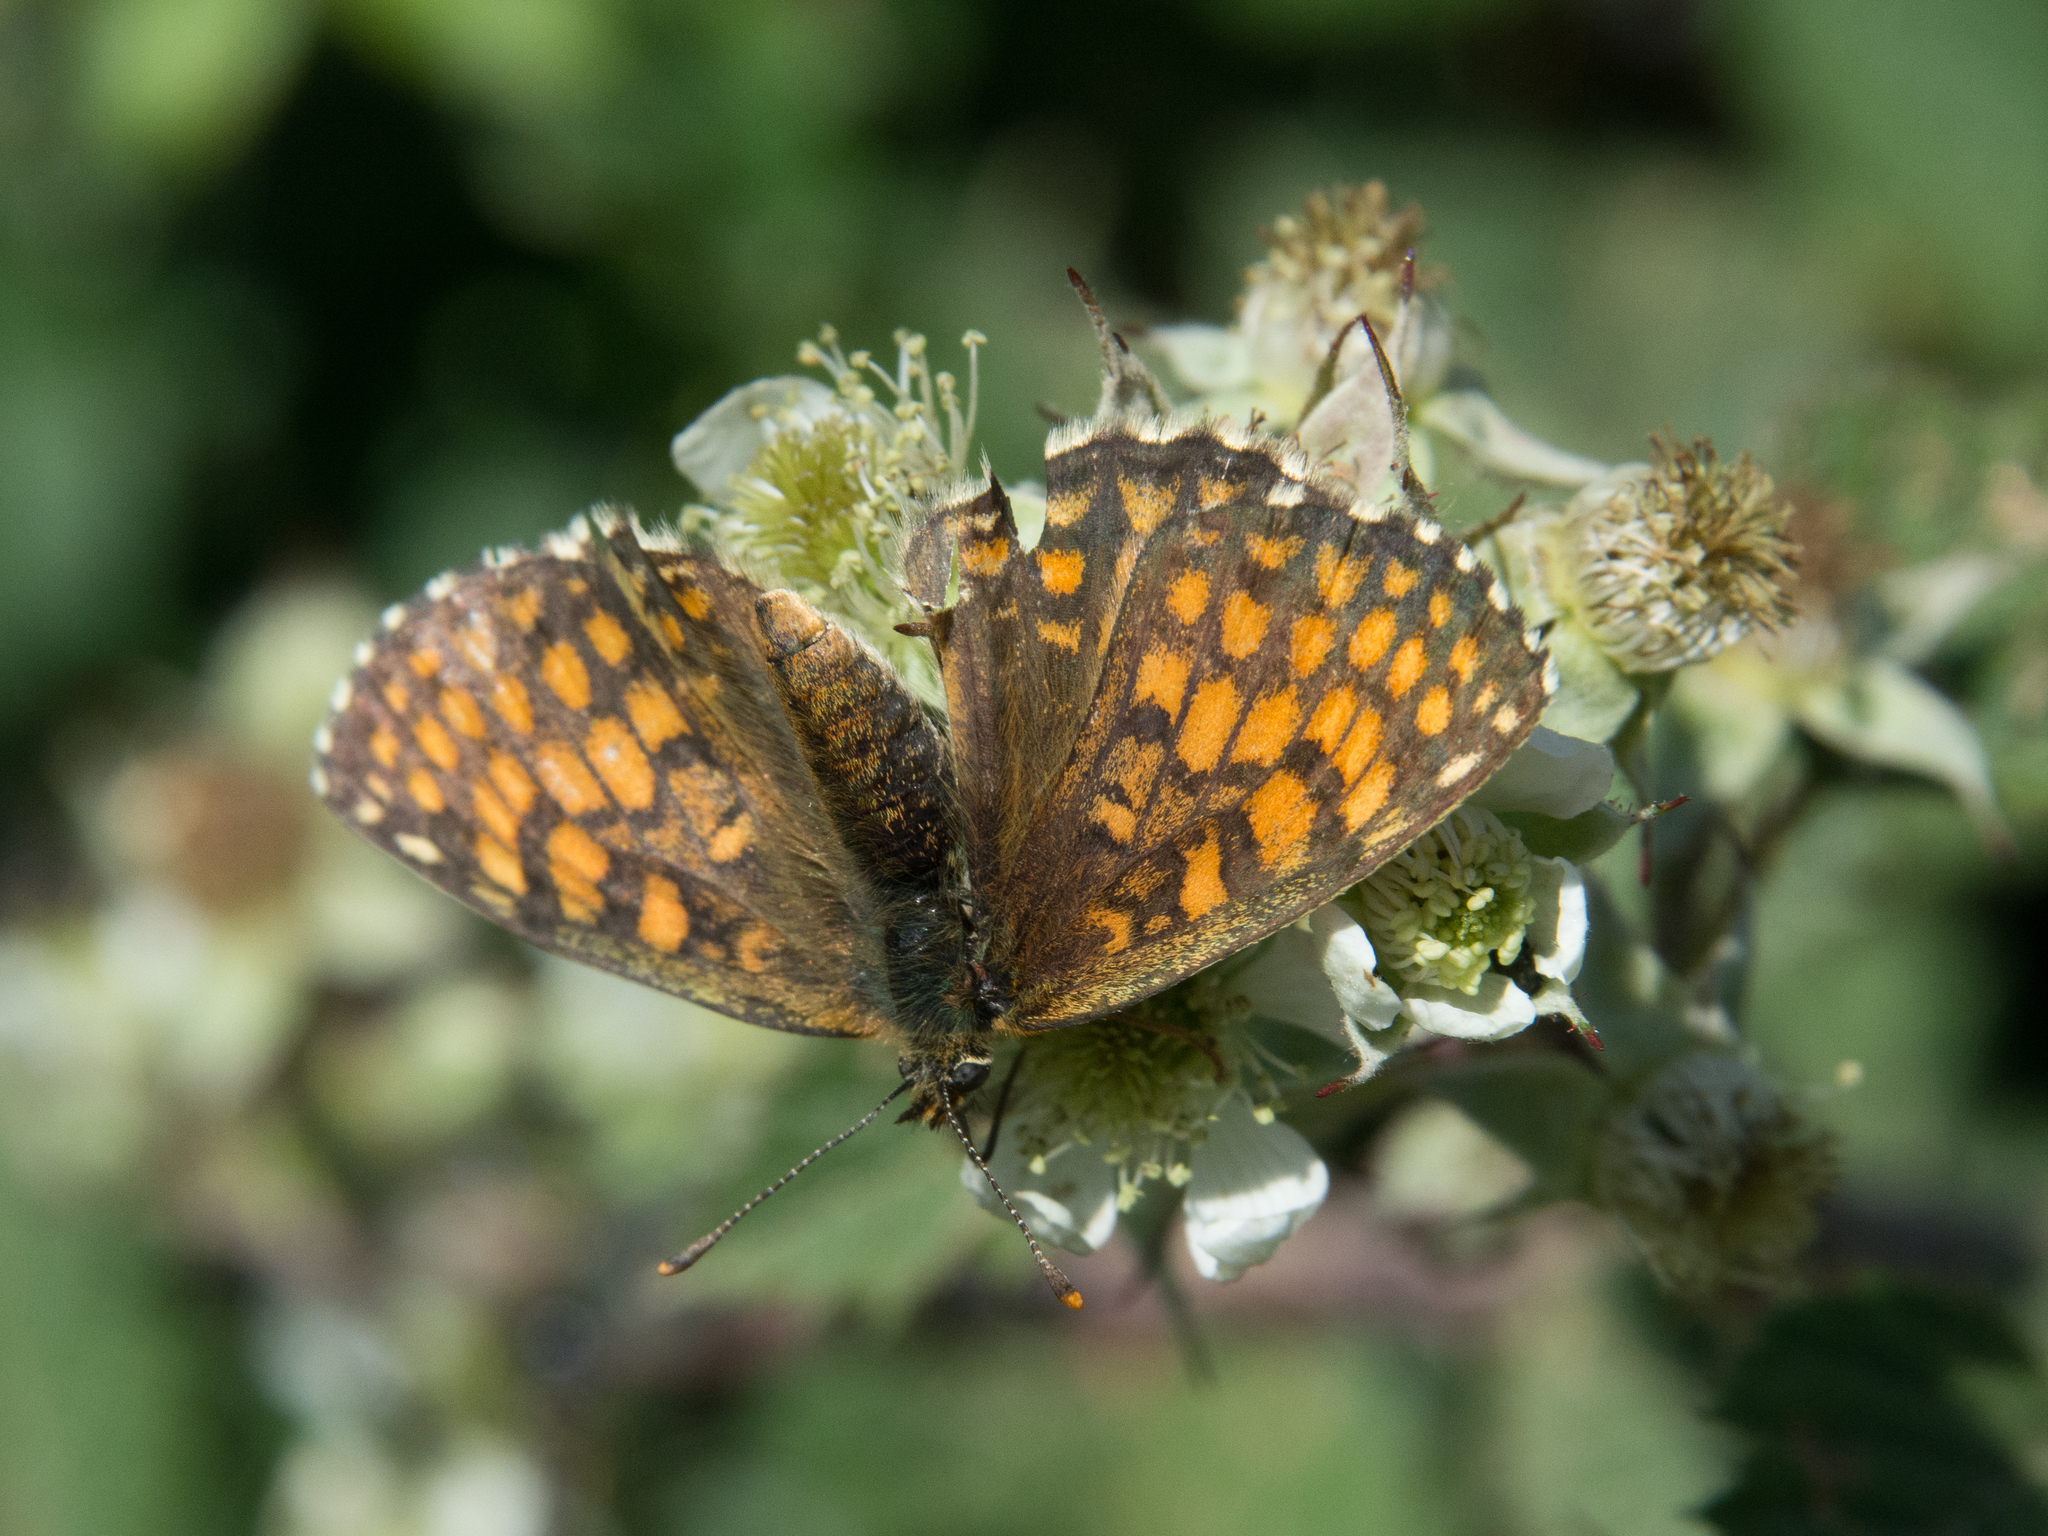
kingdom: Animalia
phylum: Arthropoda
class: Insecta
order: Lepidoptera
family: Nymphalidae
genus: Mellicta
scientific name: Mellicta athalia
